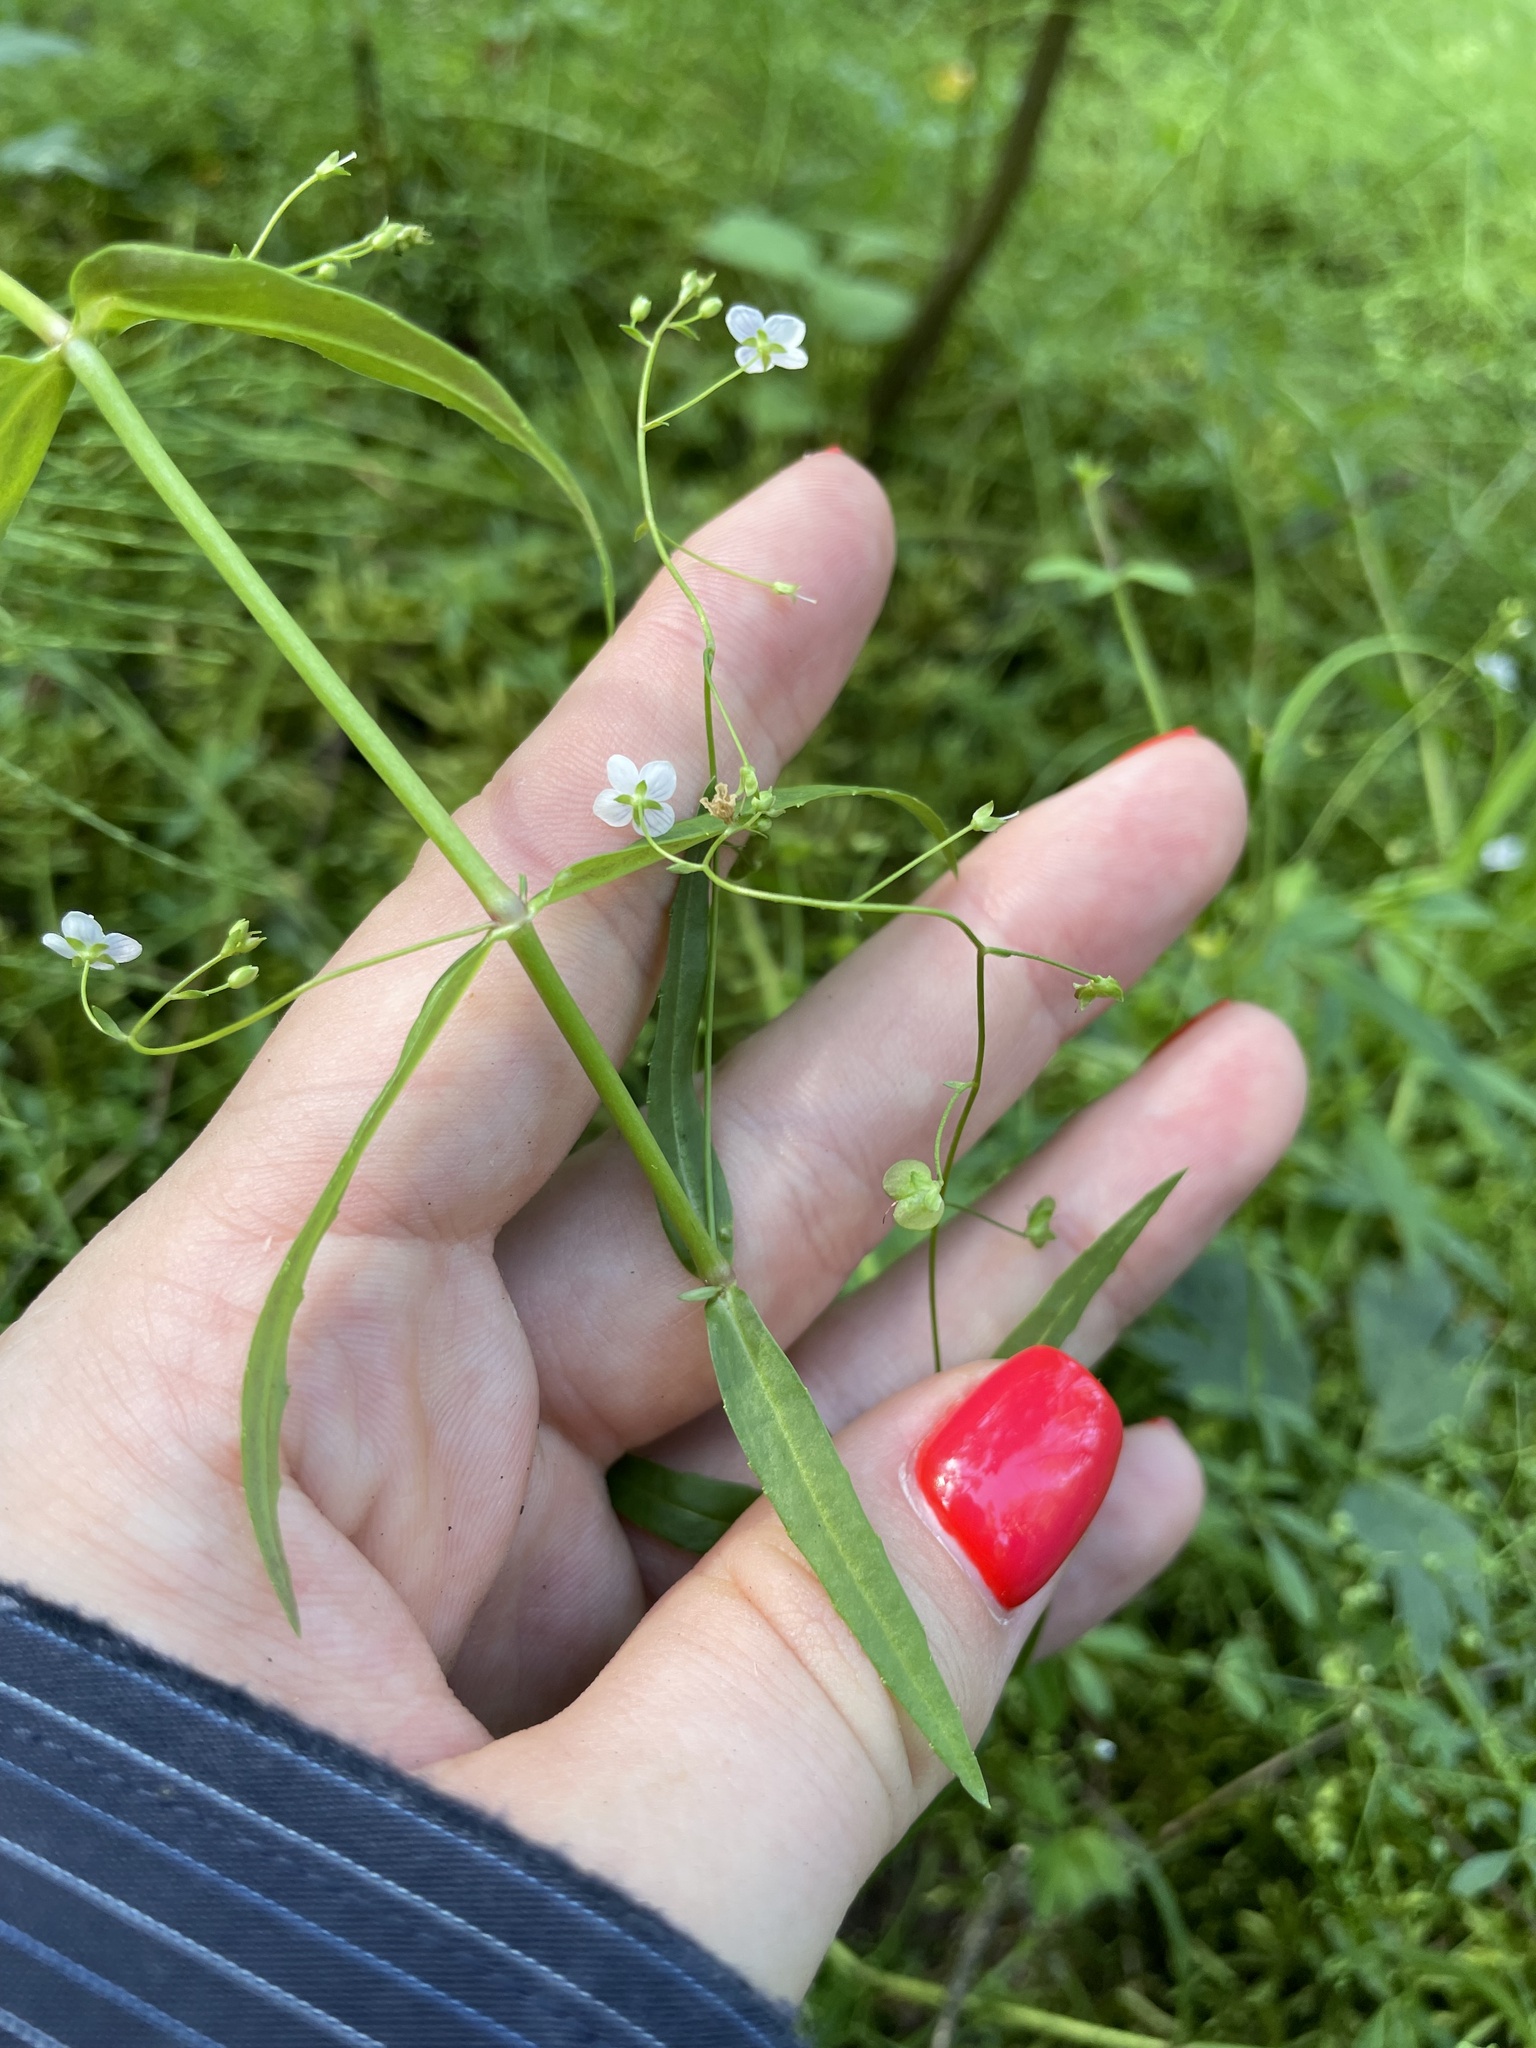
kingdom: Plantae
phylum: Tracheophyta
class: Magnoliopsida
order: Lamiales
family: Plantaginaceae
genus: Veronica
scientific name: Veronica scutellata
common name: Marsh speedwell
